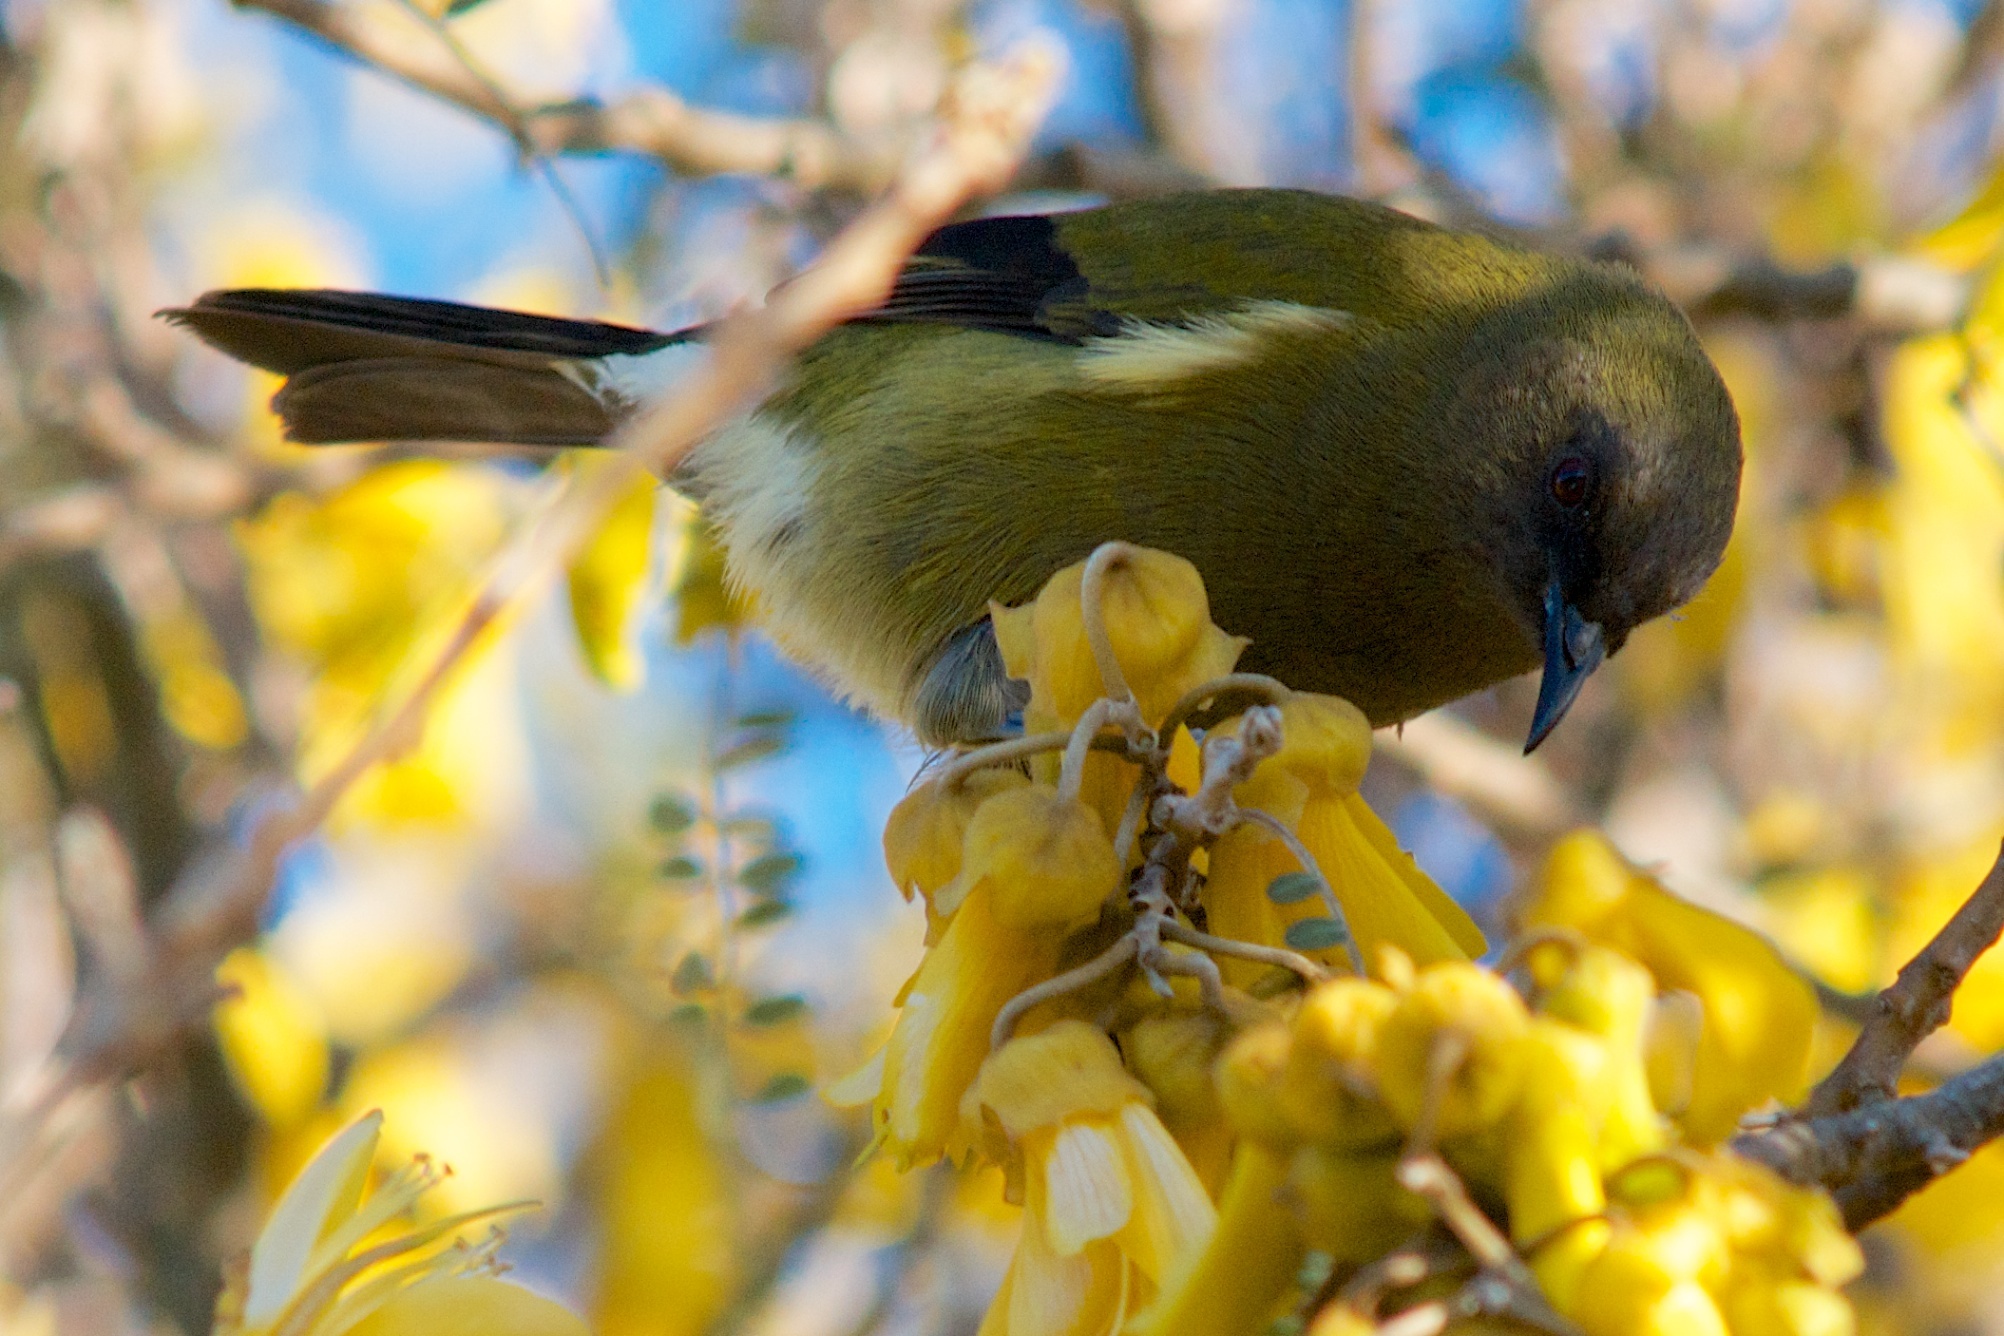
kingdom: Animalia
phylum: Chordata
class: Aves
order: Passeriformes
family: Meliphagidae
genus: Anthornis
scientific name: Anthornis melanura
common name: New zealand bellbird
